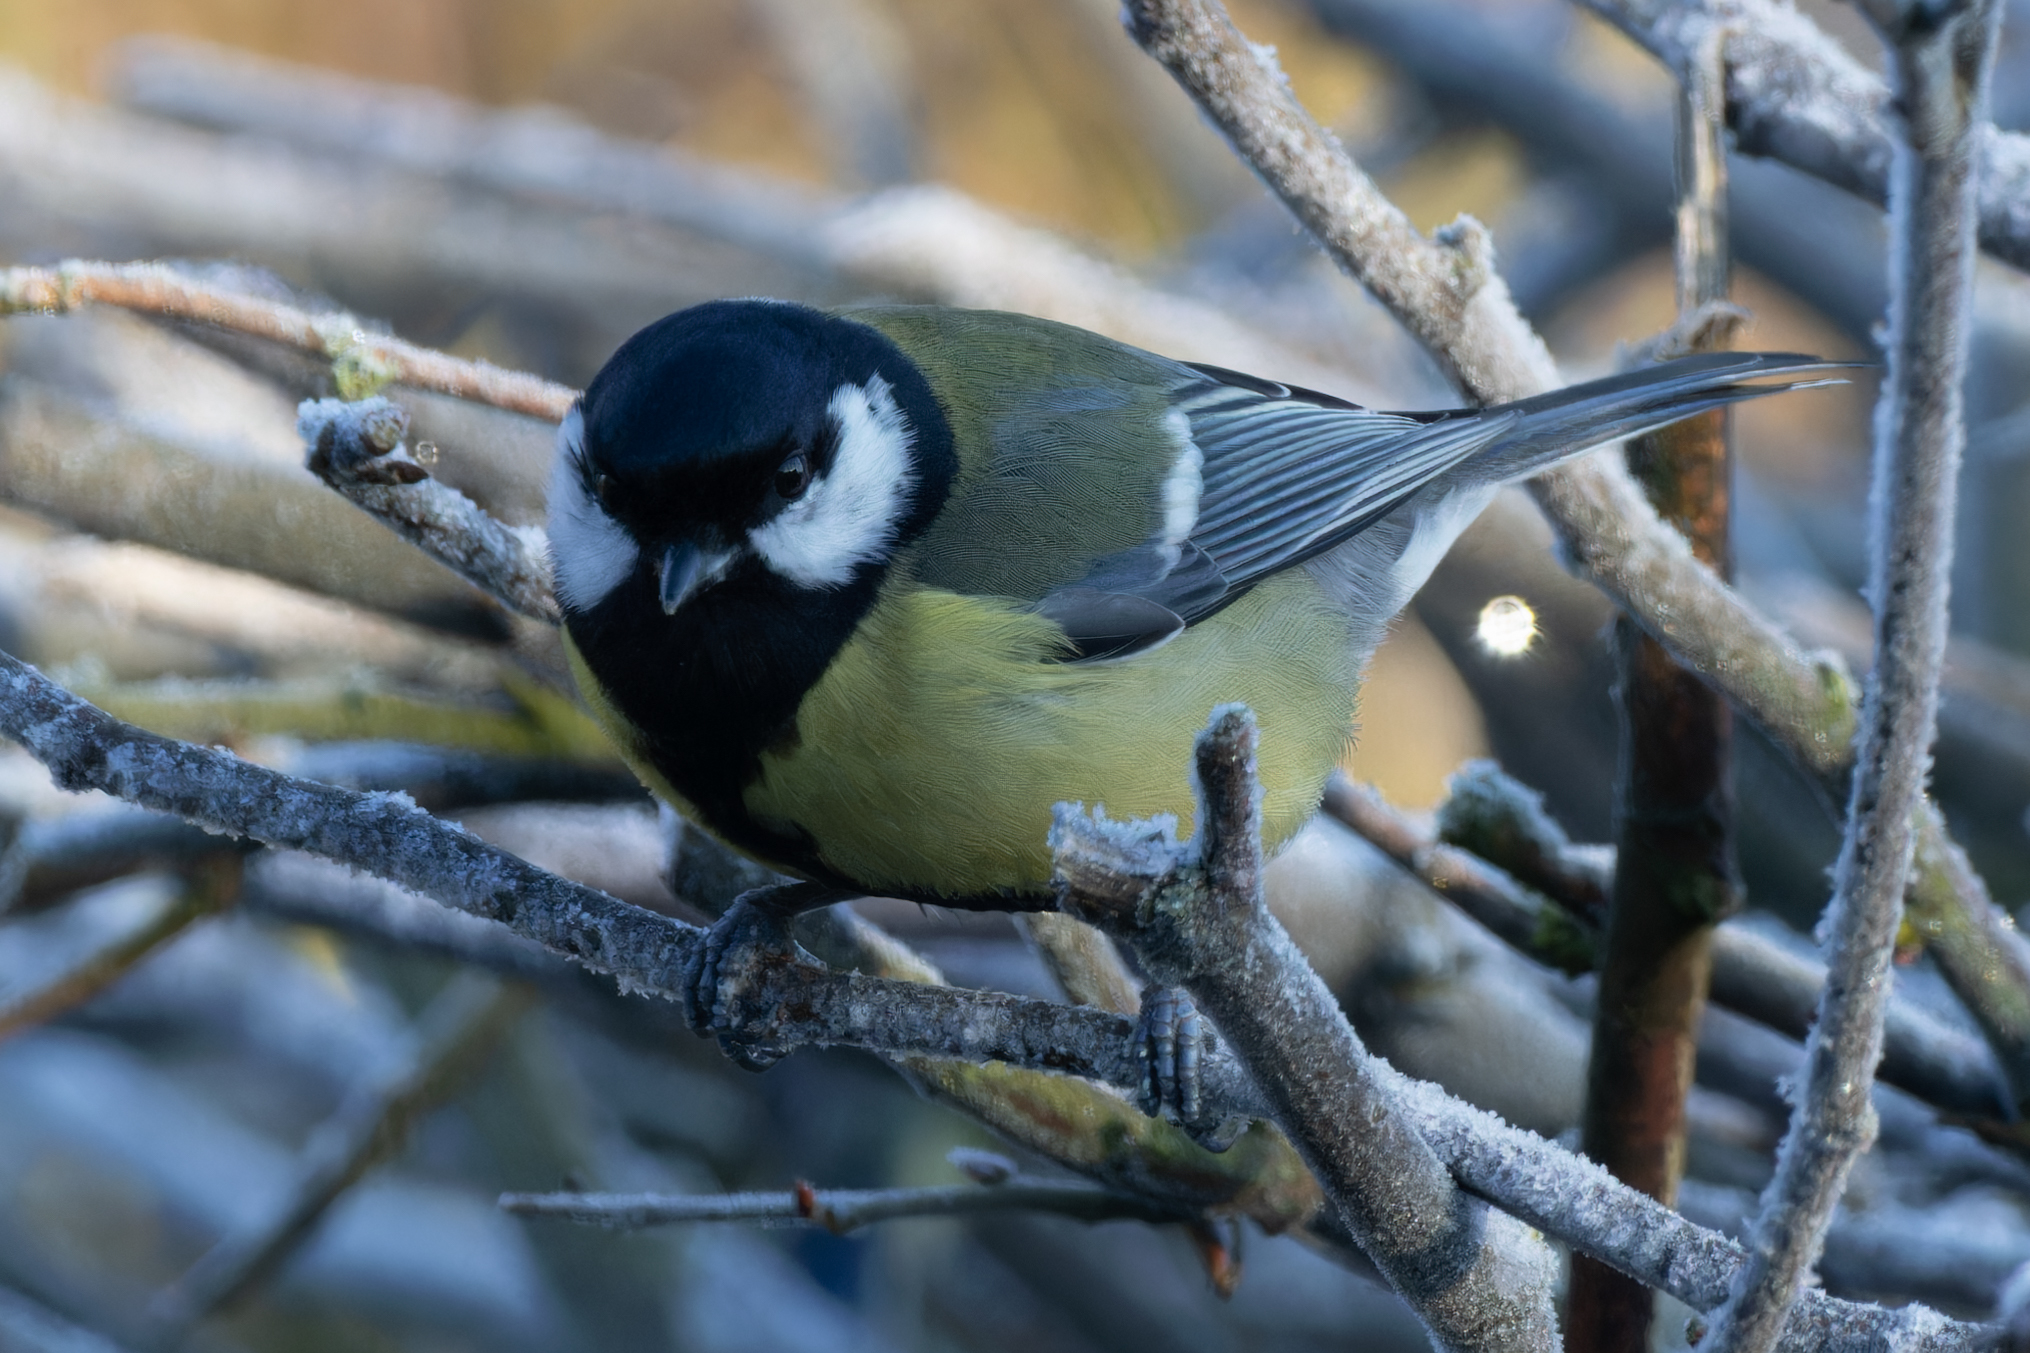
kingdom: Animalia
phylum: Chordata
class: Aves
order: Passeriformes
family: Paridae
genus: Parus
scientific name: Parus major
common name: Great tit
